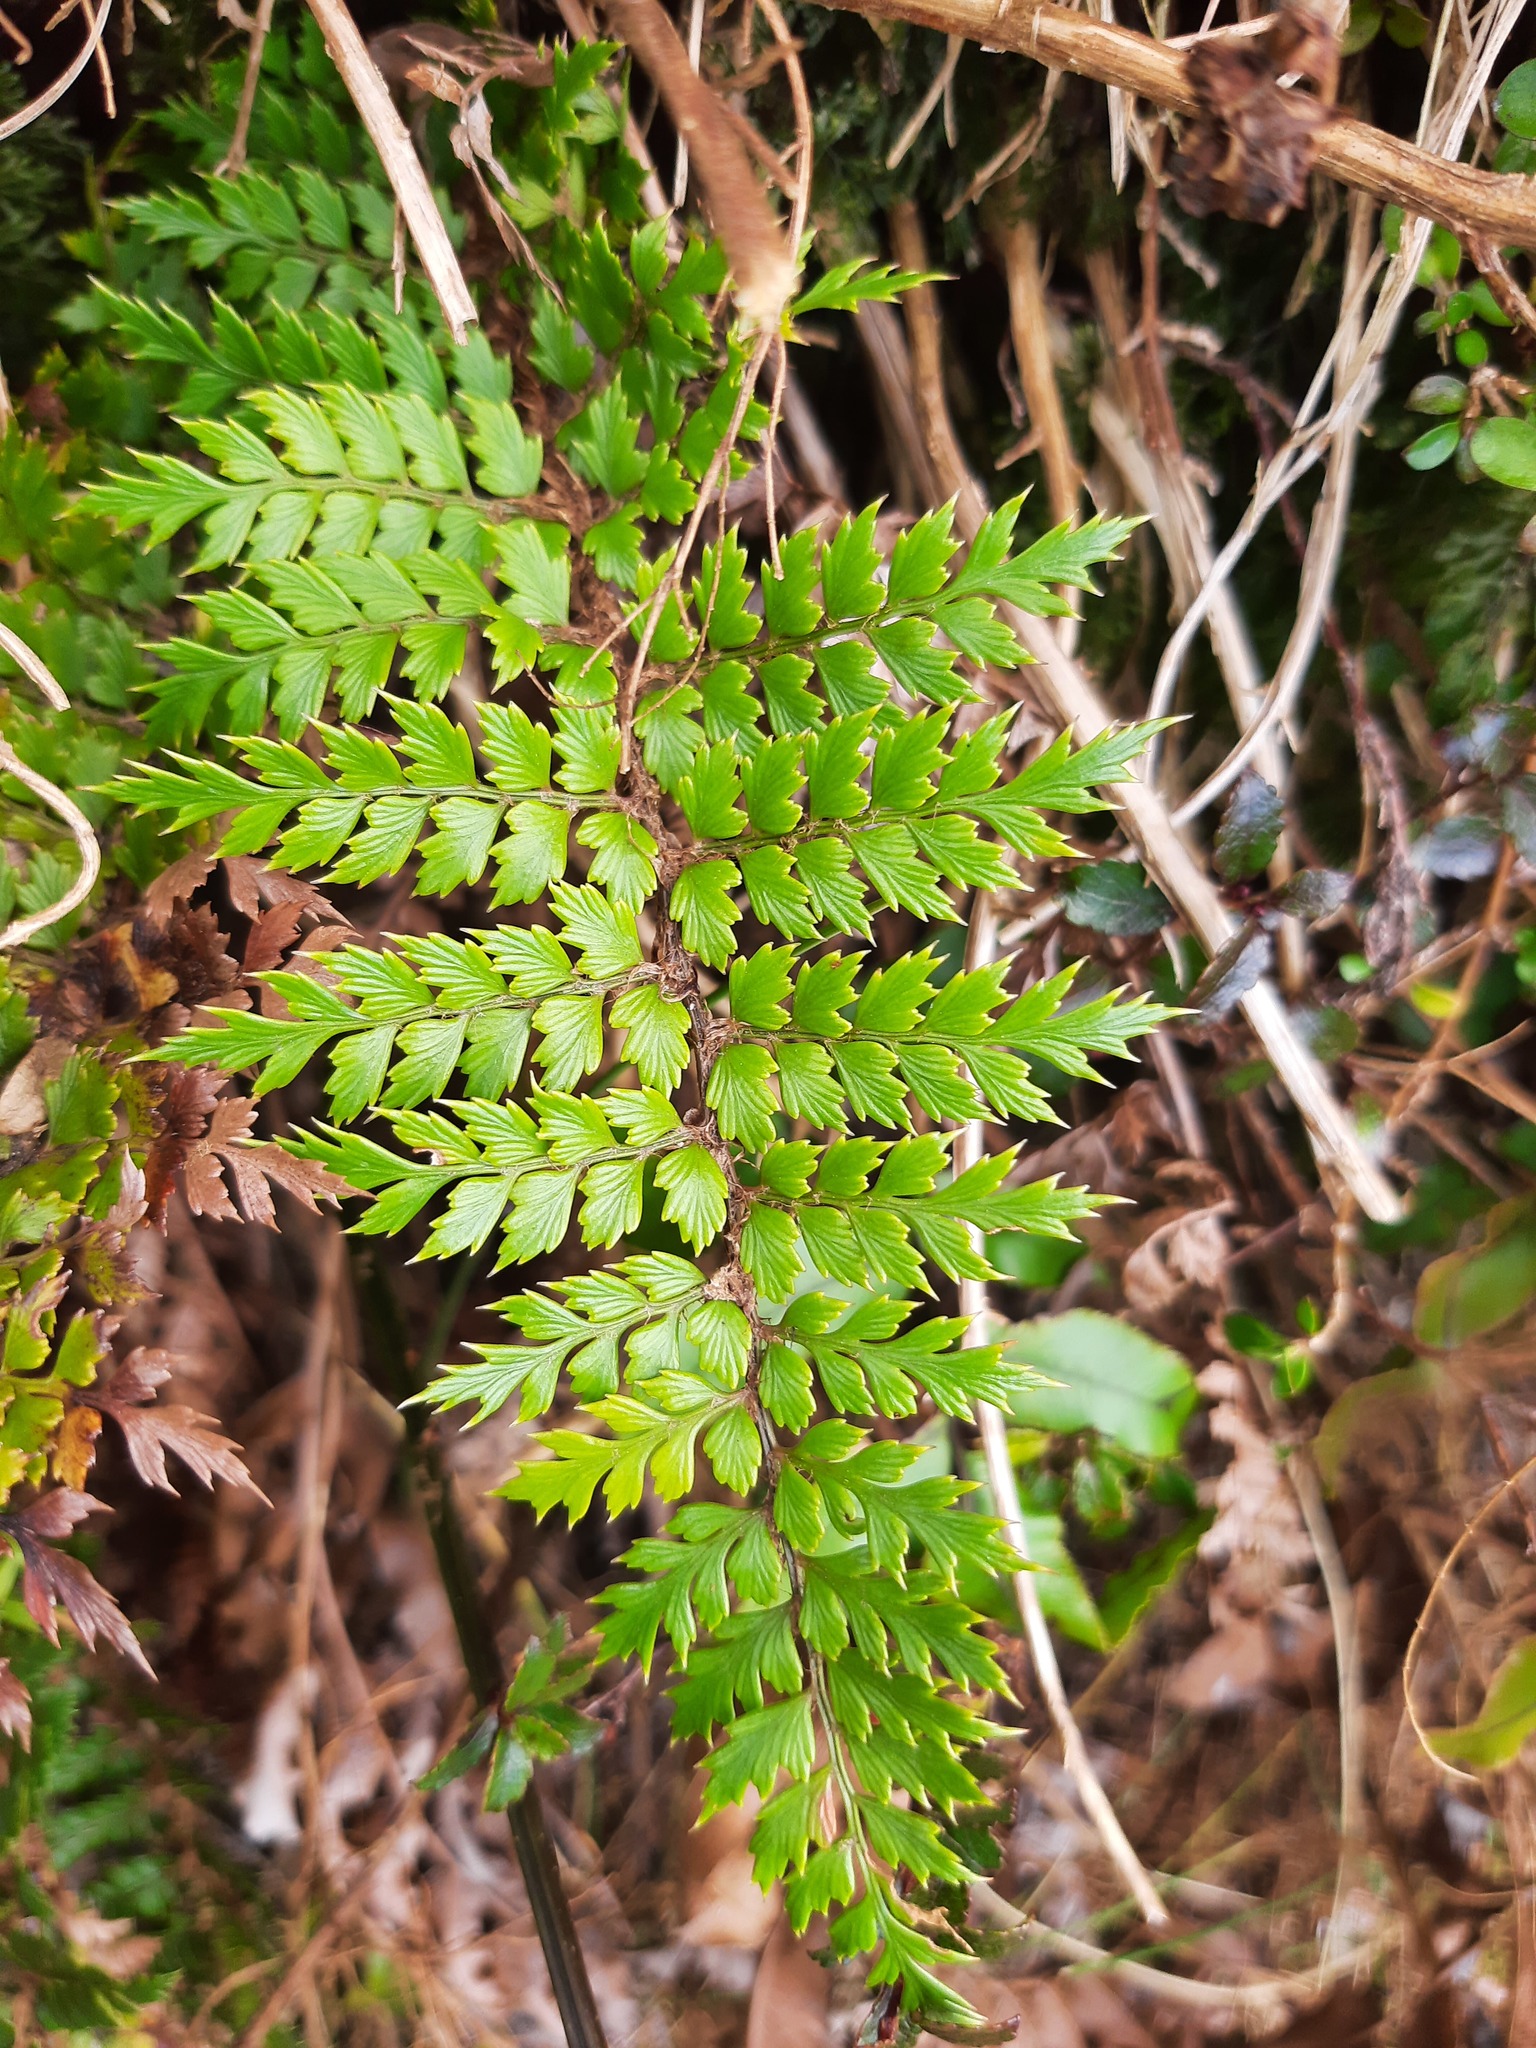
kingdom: Plantae
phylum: Tracheophyta
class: Polypodiopsida
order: Polypodiales
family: Dryopteridaceae
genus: Polystichum
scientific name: Polystichum vestitum
